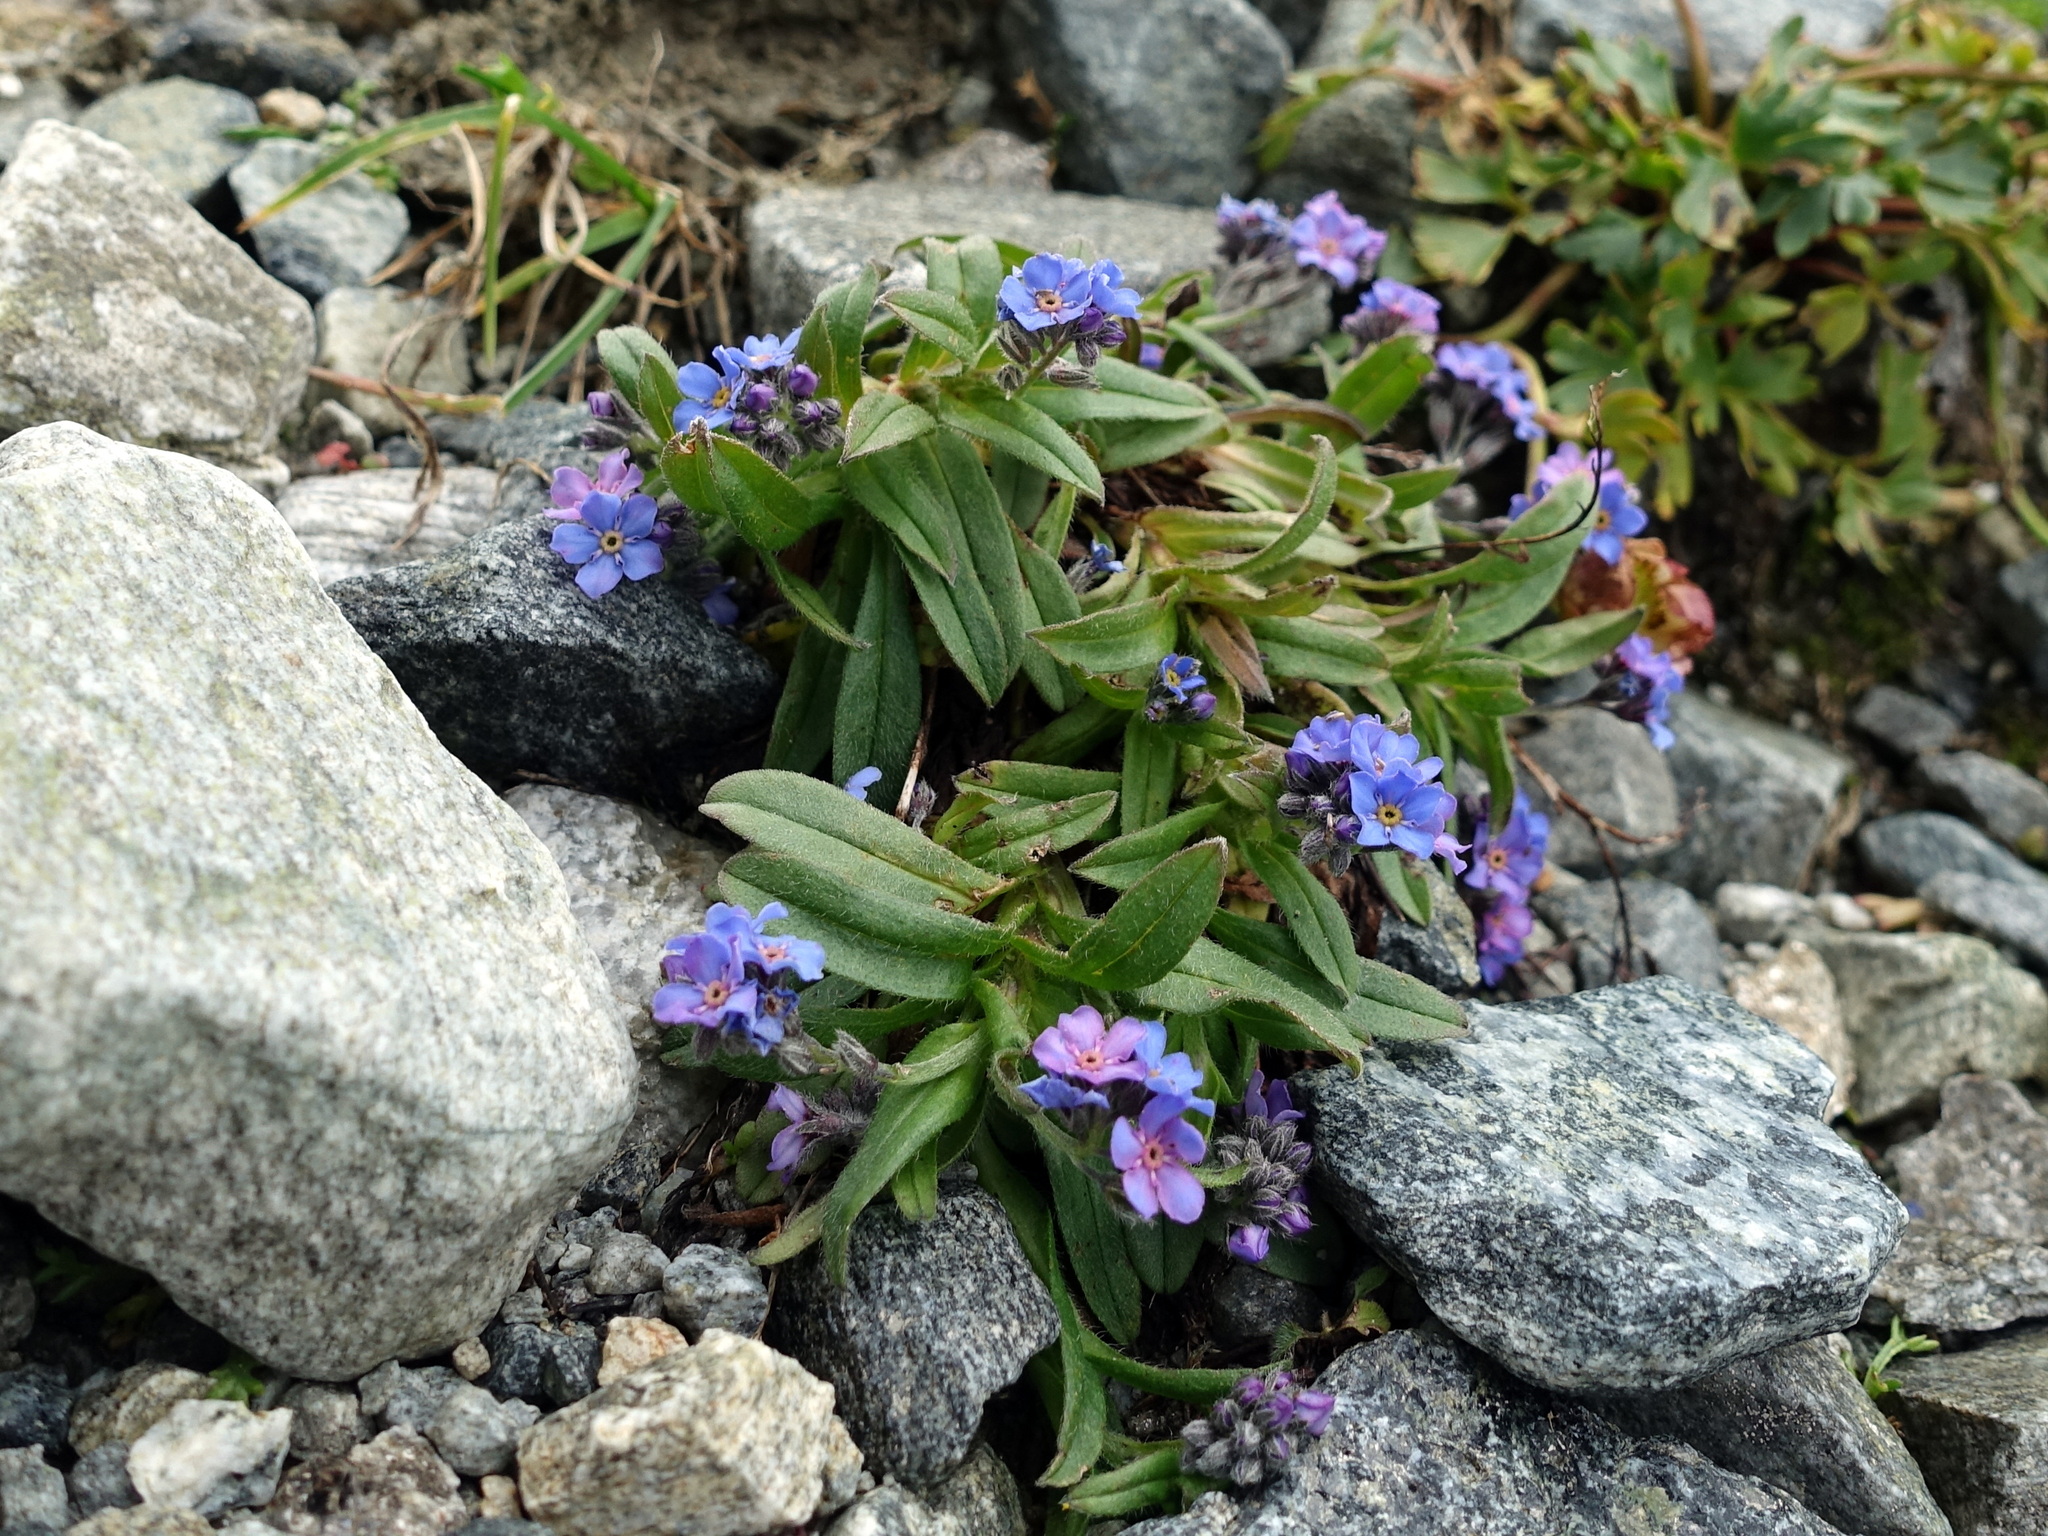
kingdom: Plantae
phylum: Tracheophyta
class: Magnoliopsida
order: Boraginales
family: Boraginaceae
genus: Myosotis
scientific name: Myosotis alpestris
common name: Alpine forget-me-not
